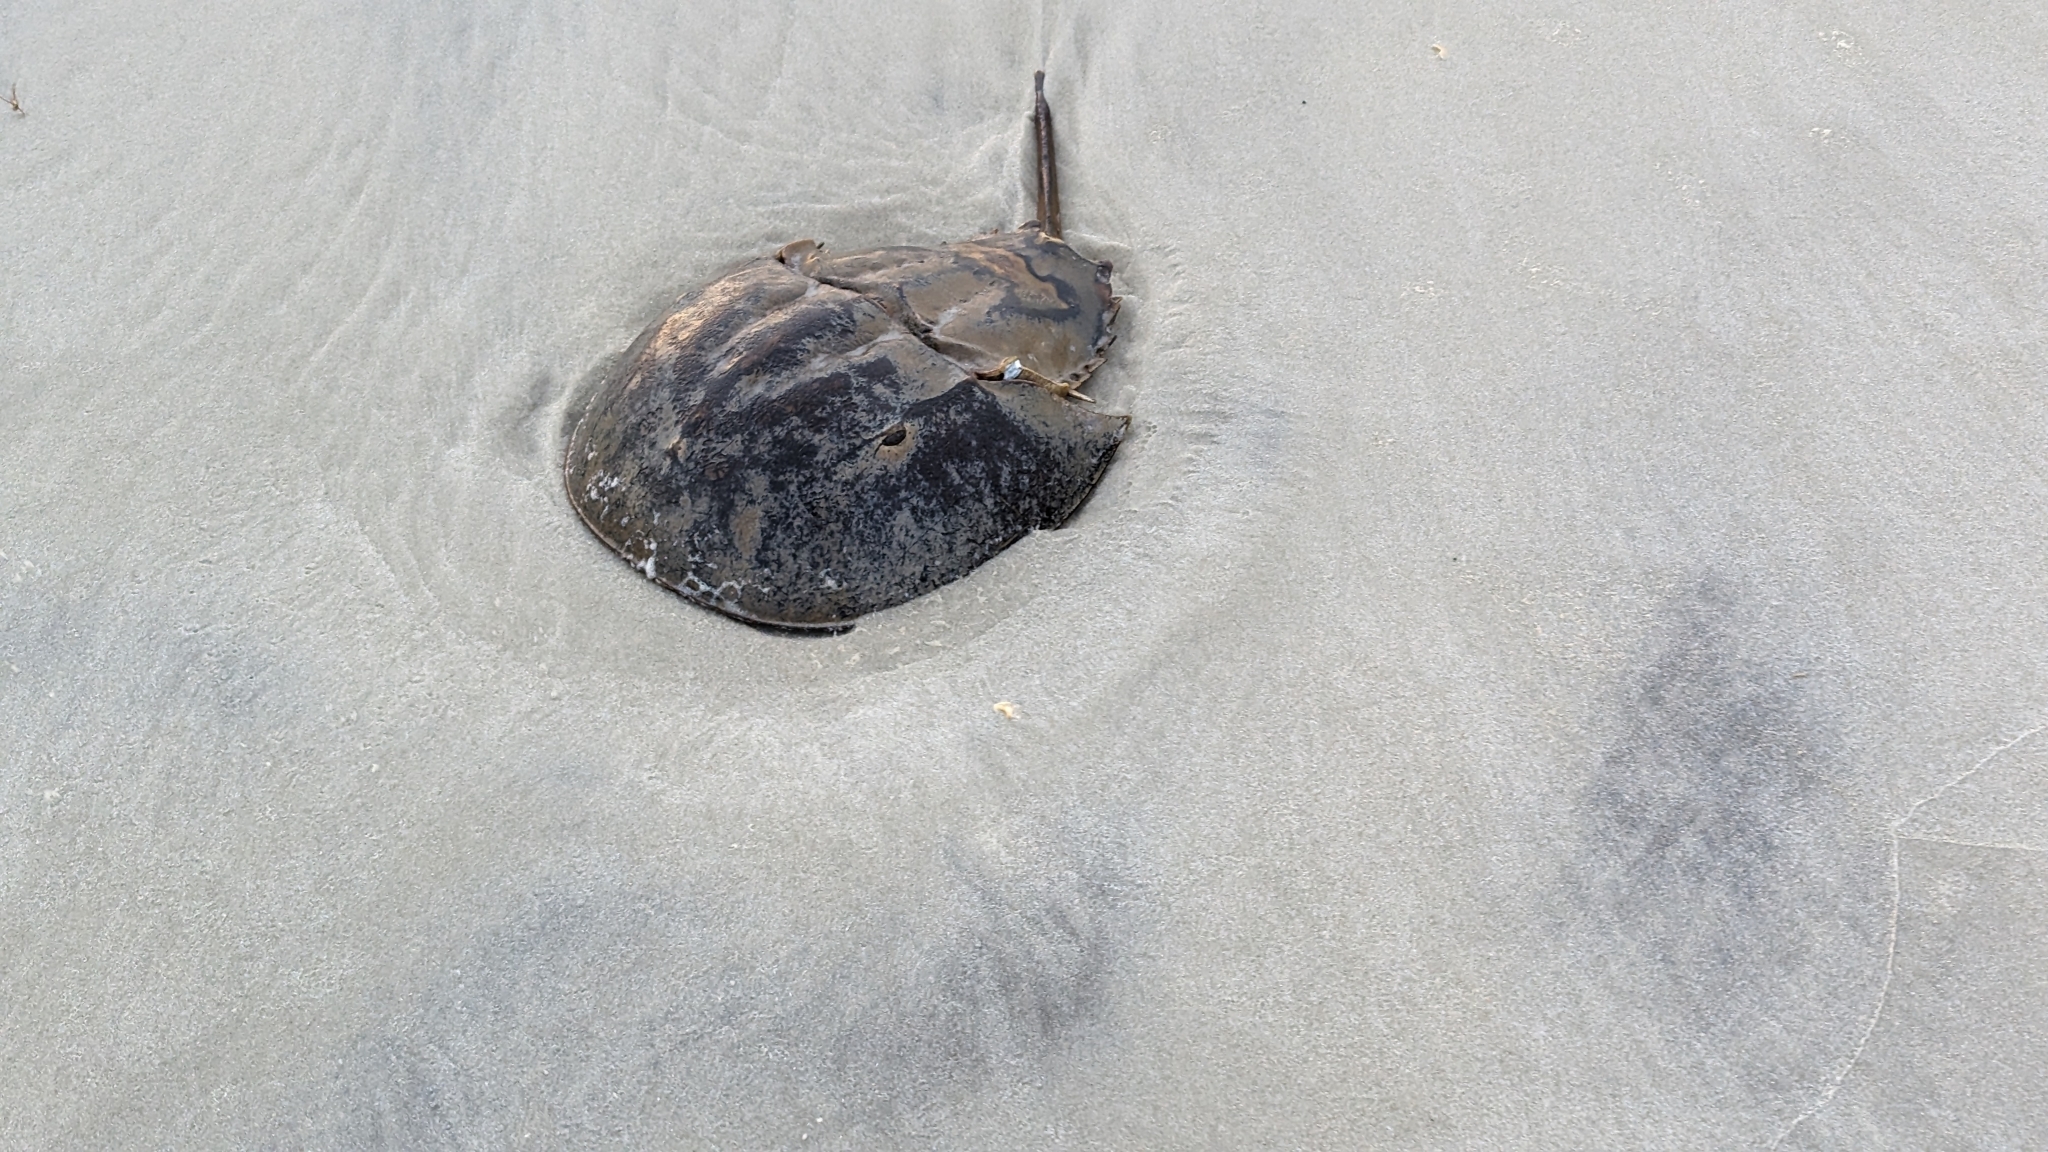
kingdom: Animalia
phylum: Arthropoda
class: Merostomata
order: Xiphosurida
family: Limulidae
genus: Limulus
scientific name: Limulus polyphemus
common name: Horseshoe crab
